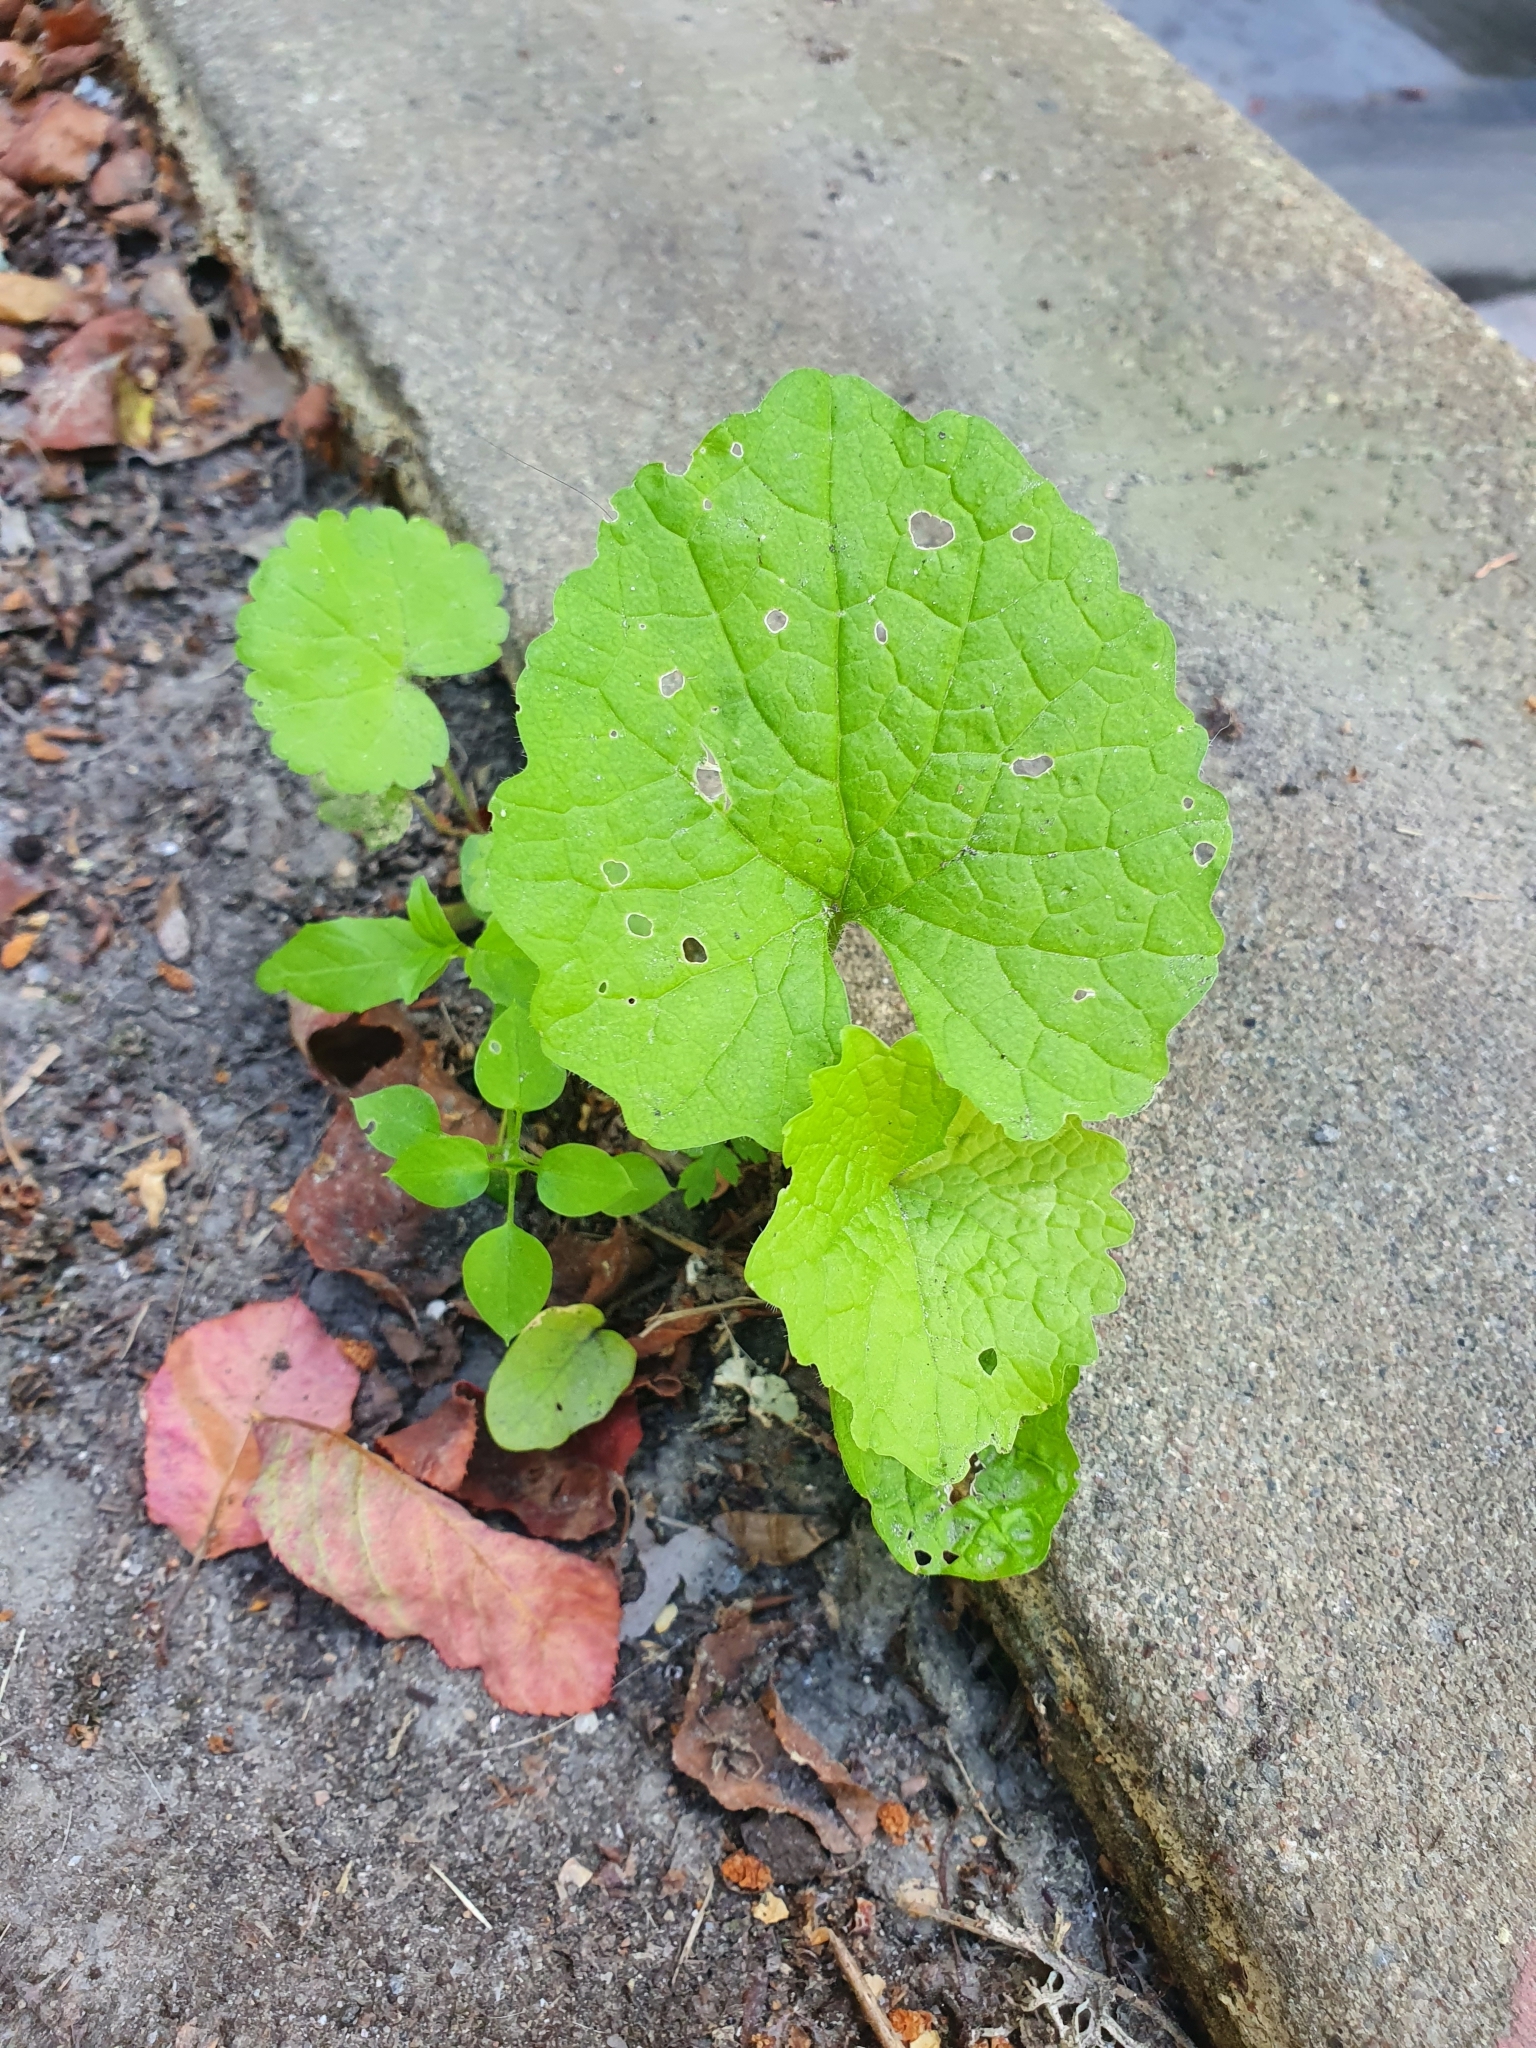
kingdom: Plantae
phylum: Tracheophyta
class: Magnoliopsida
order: Brassicales
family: Brassicaceae
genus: Alliaria
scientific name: Alliaria petiolata
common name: Garlic mustard
